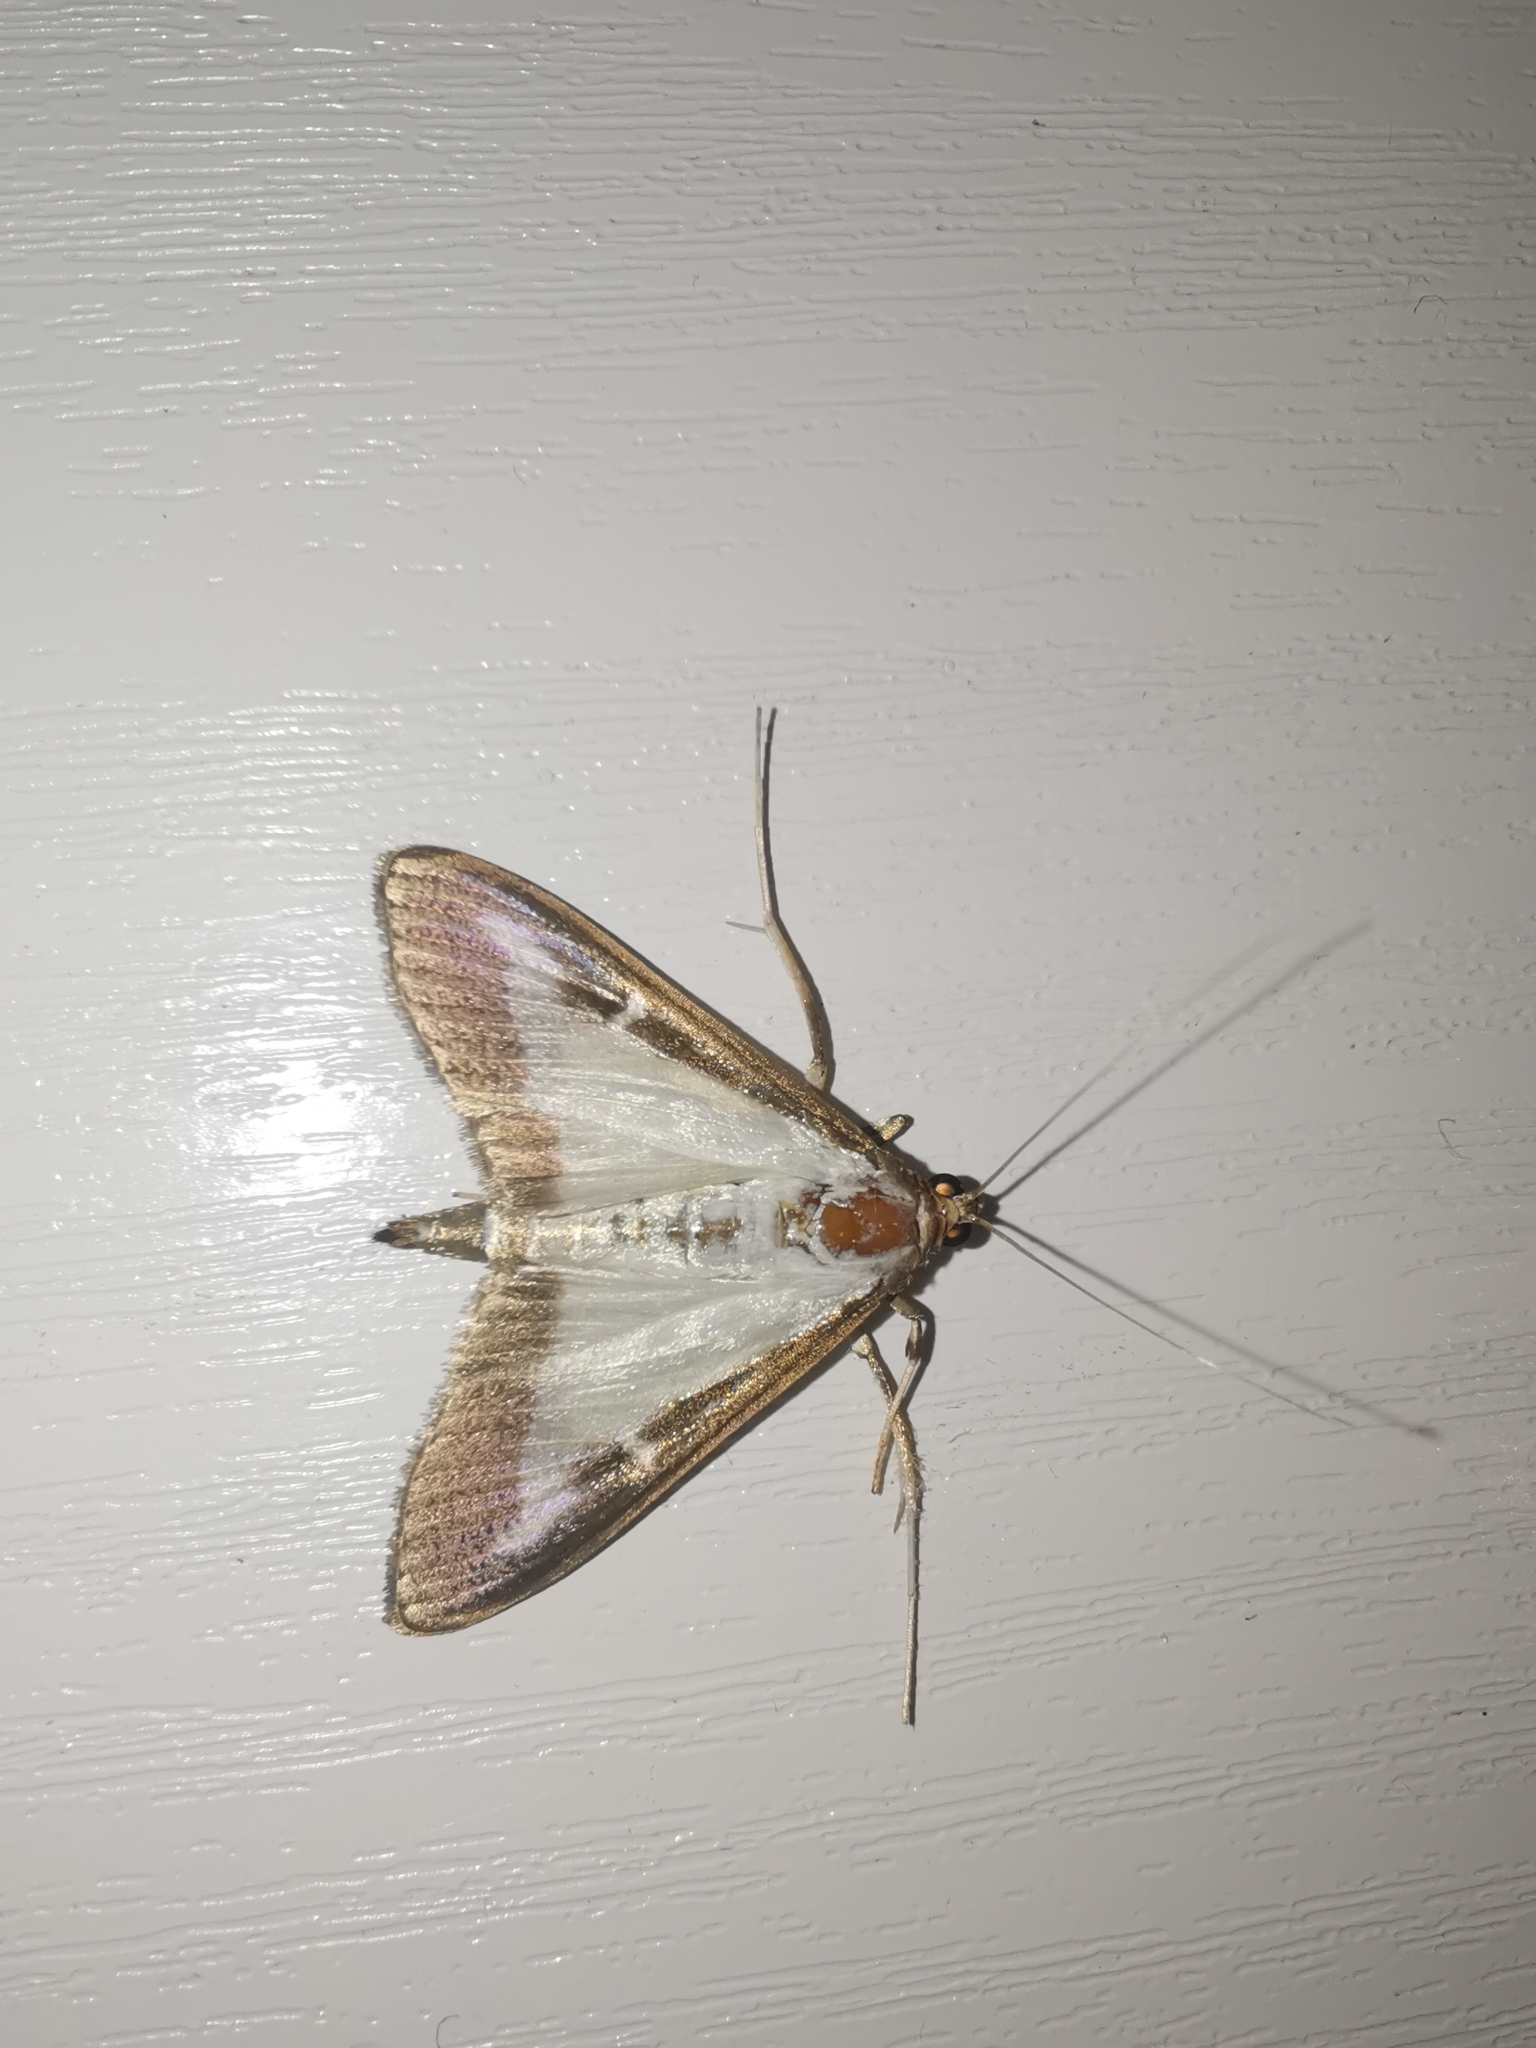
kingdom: Animalia
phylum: Arthropoda
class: Insecta
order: Lepidoptera
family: Crambidae
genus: Cydalima
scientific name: Cydalima perspectalis
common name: Box tree moth
